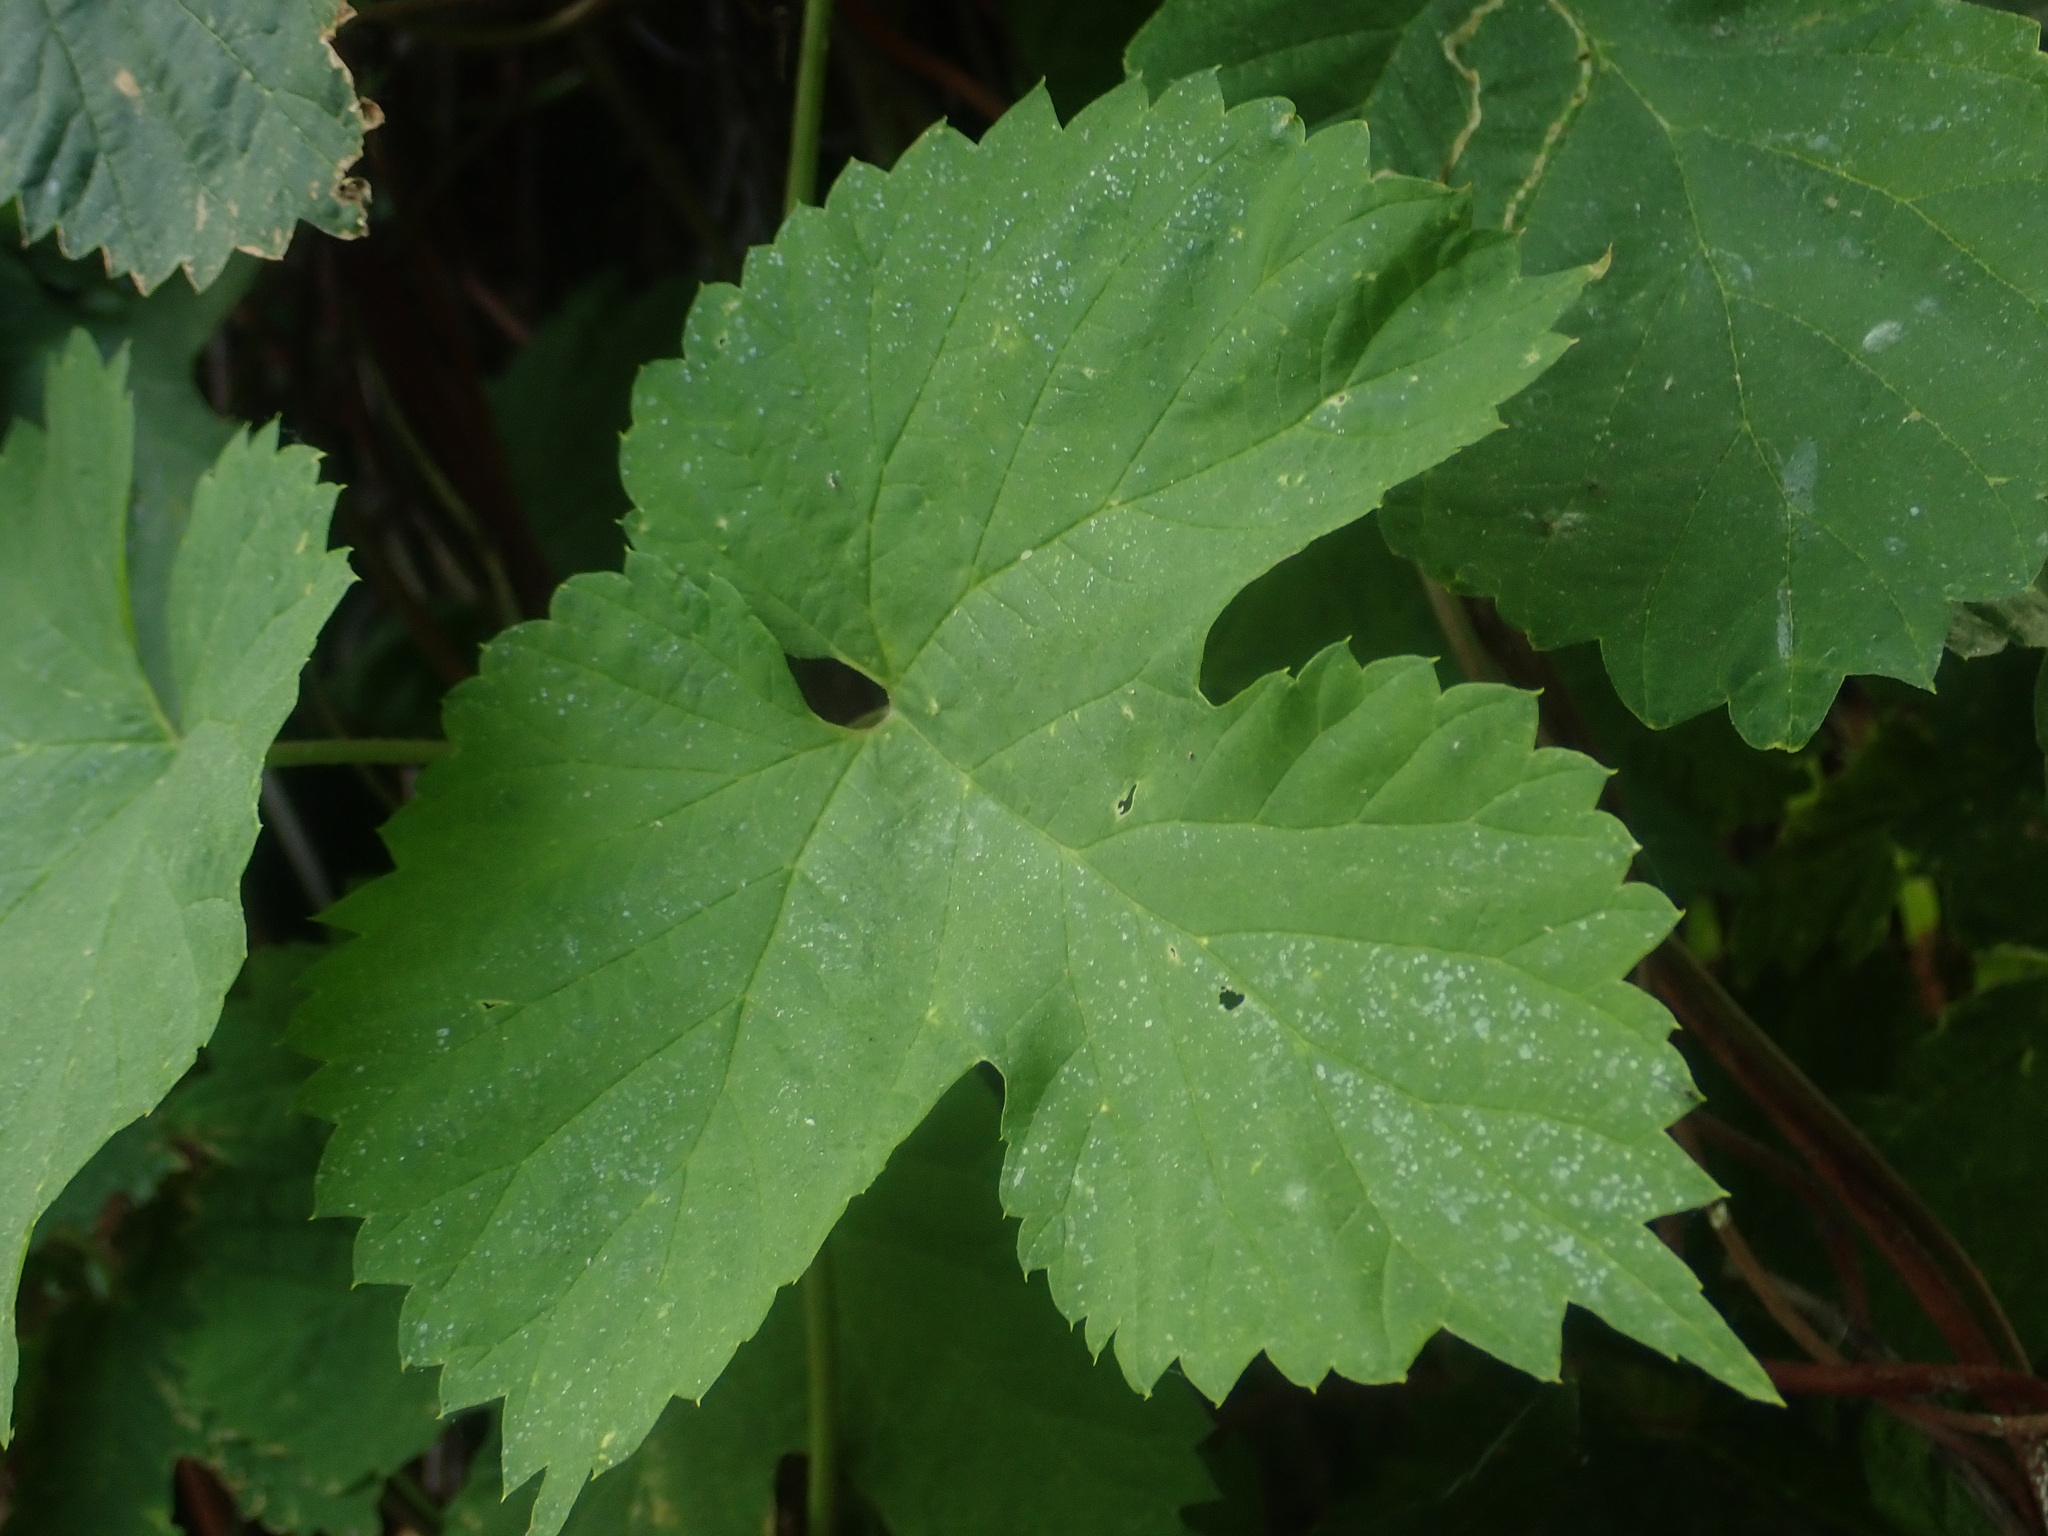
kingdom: Plantae
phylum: Tracheophyta
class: Magnoliopsida
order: Rosales
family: Cannabaceae
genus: Humulus
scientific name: Humulus lupulus
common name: Hop
